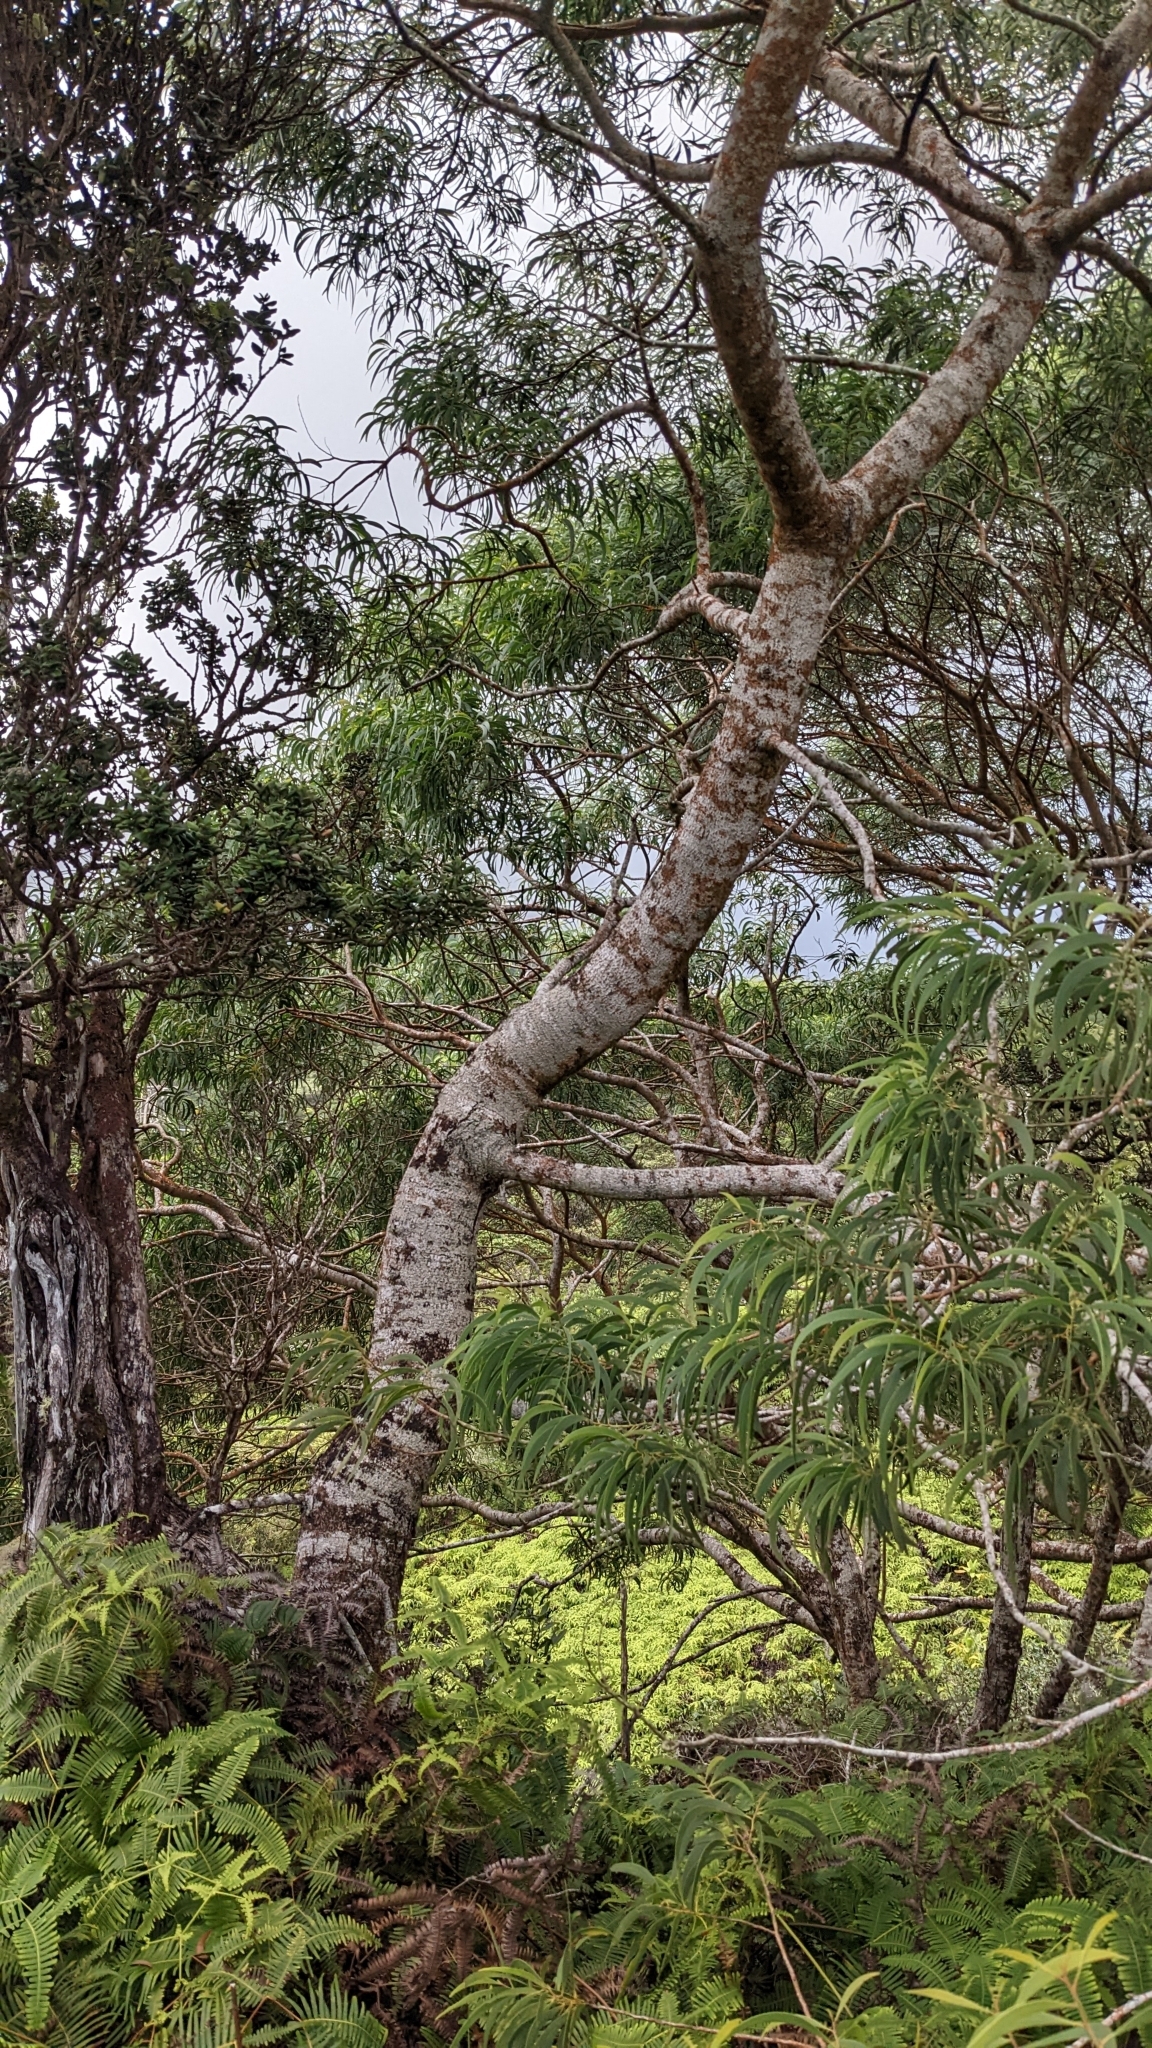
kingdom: Plantae
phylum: Tracheophyta
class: Magnoliopsida
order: Fabales
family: Fabaceae
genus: Acacia
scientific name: Acacia koa
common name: Gray koa
